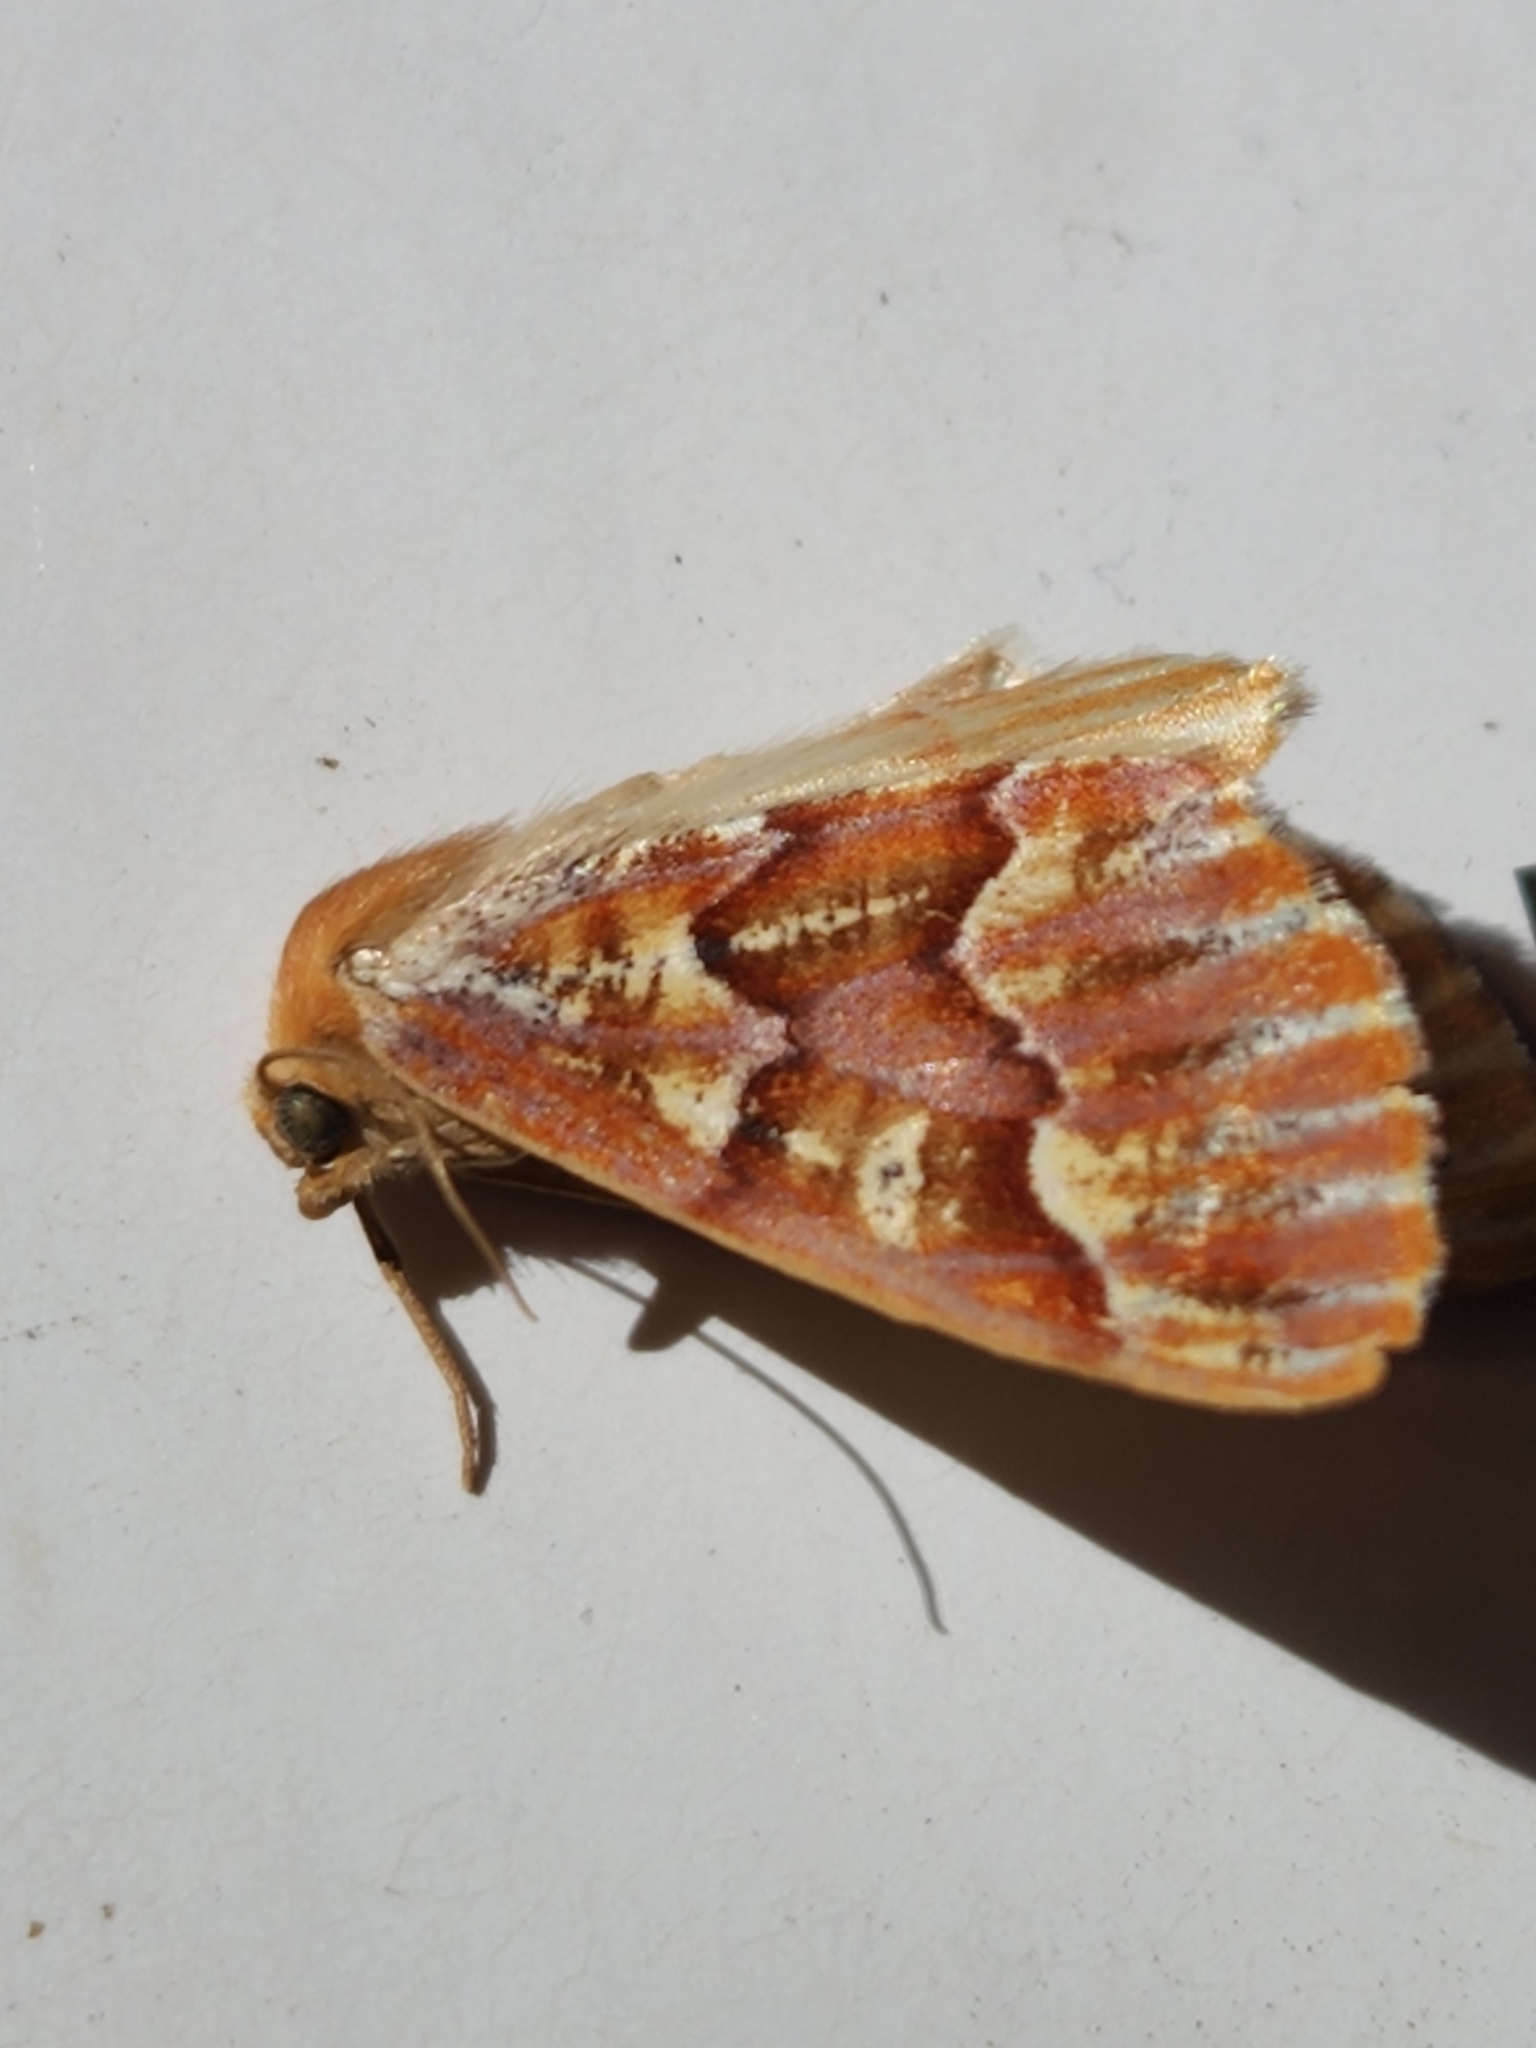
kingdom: Animalia
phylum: Arthropoda
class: Insecta
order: Lepidoptera
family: Geometridae
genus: Caripeta
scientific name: Caripeta aequaliaria
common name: Red girdle moth
